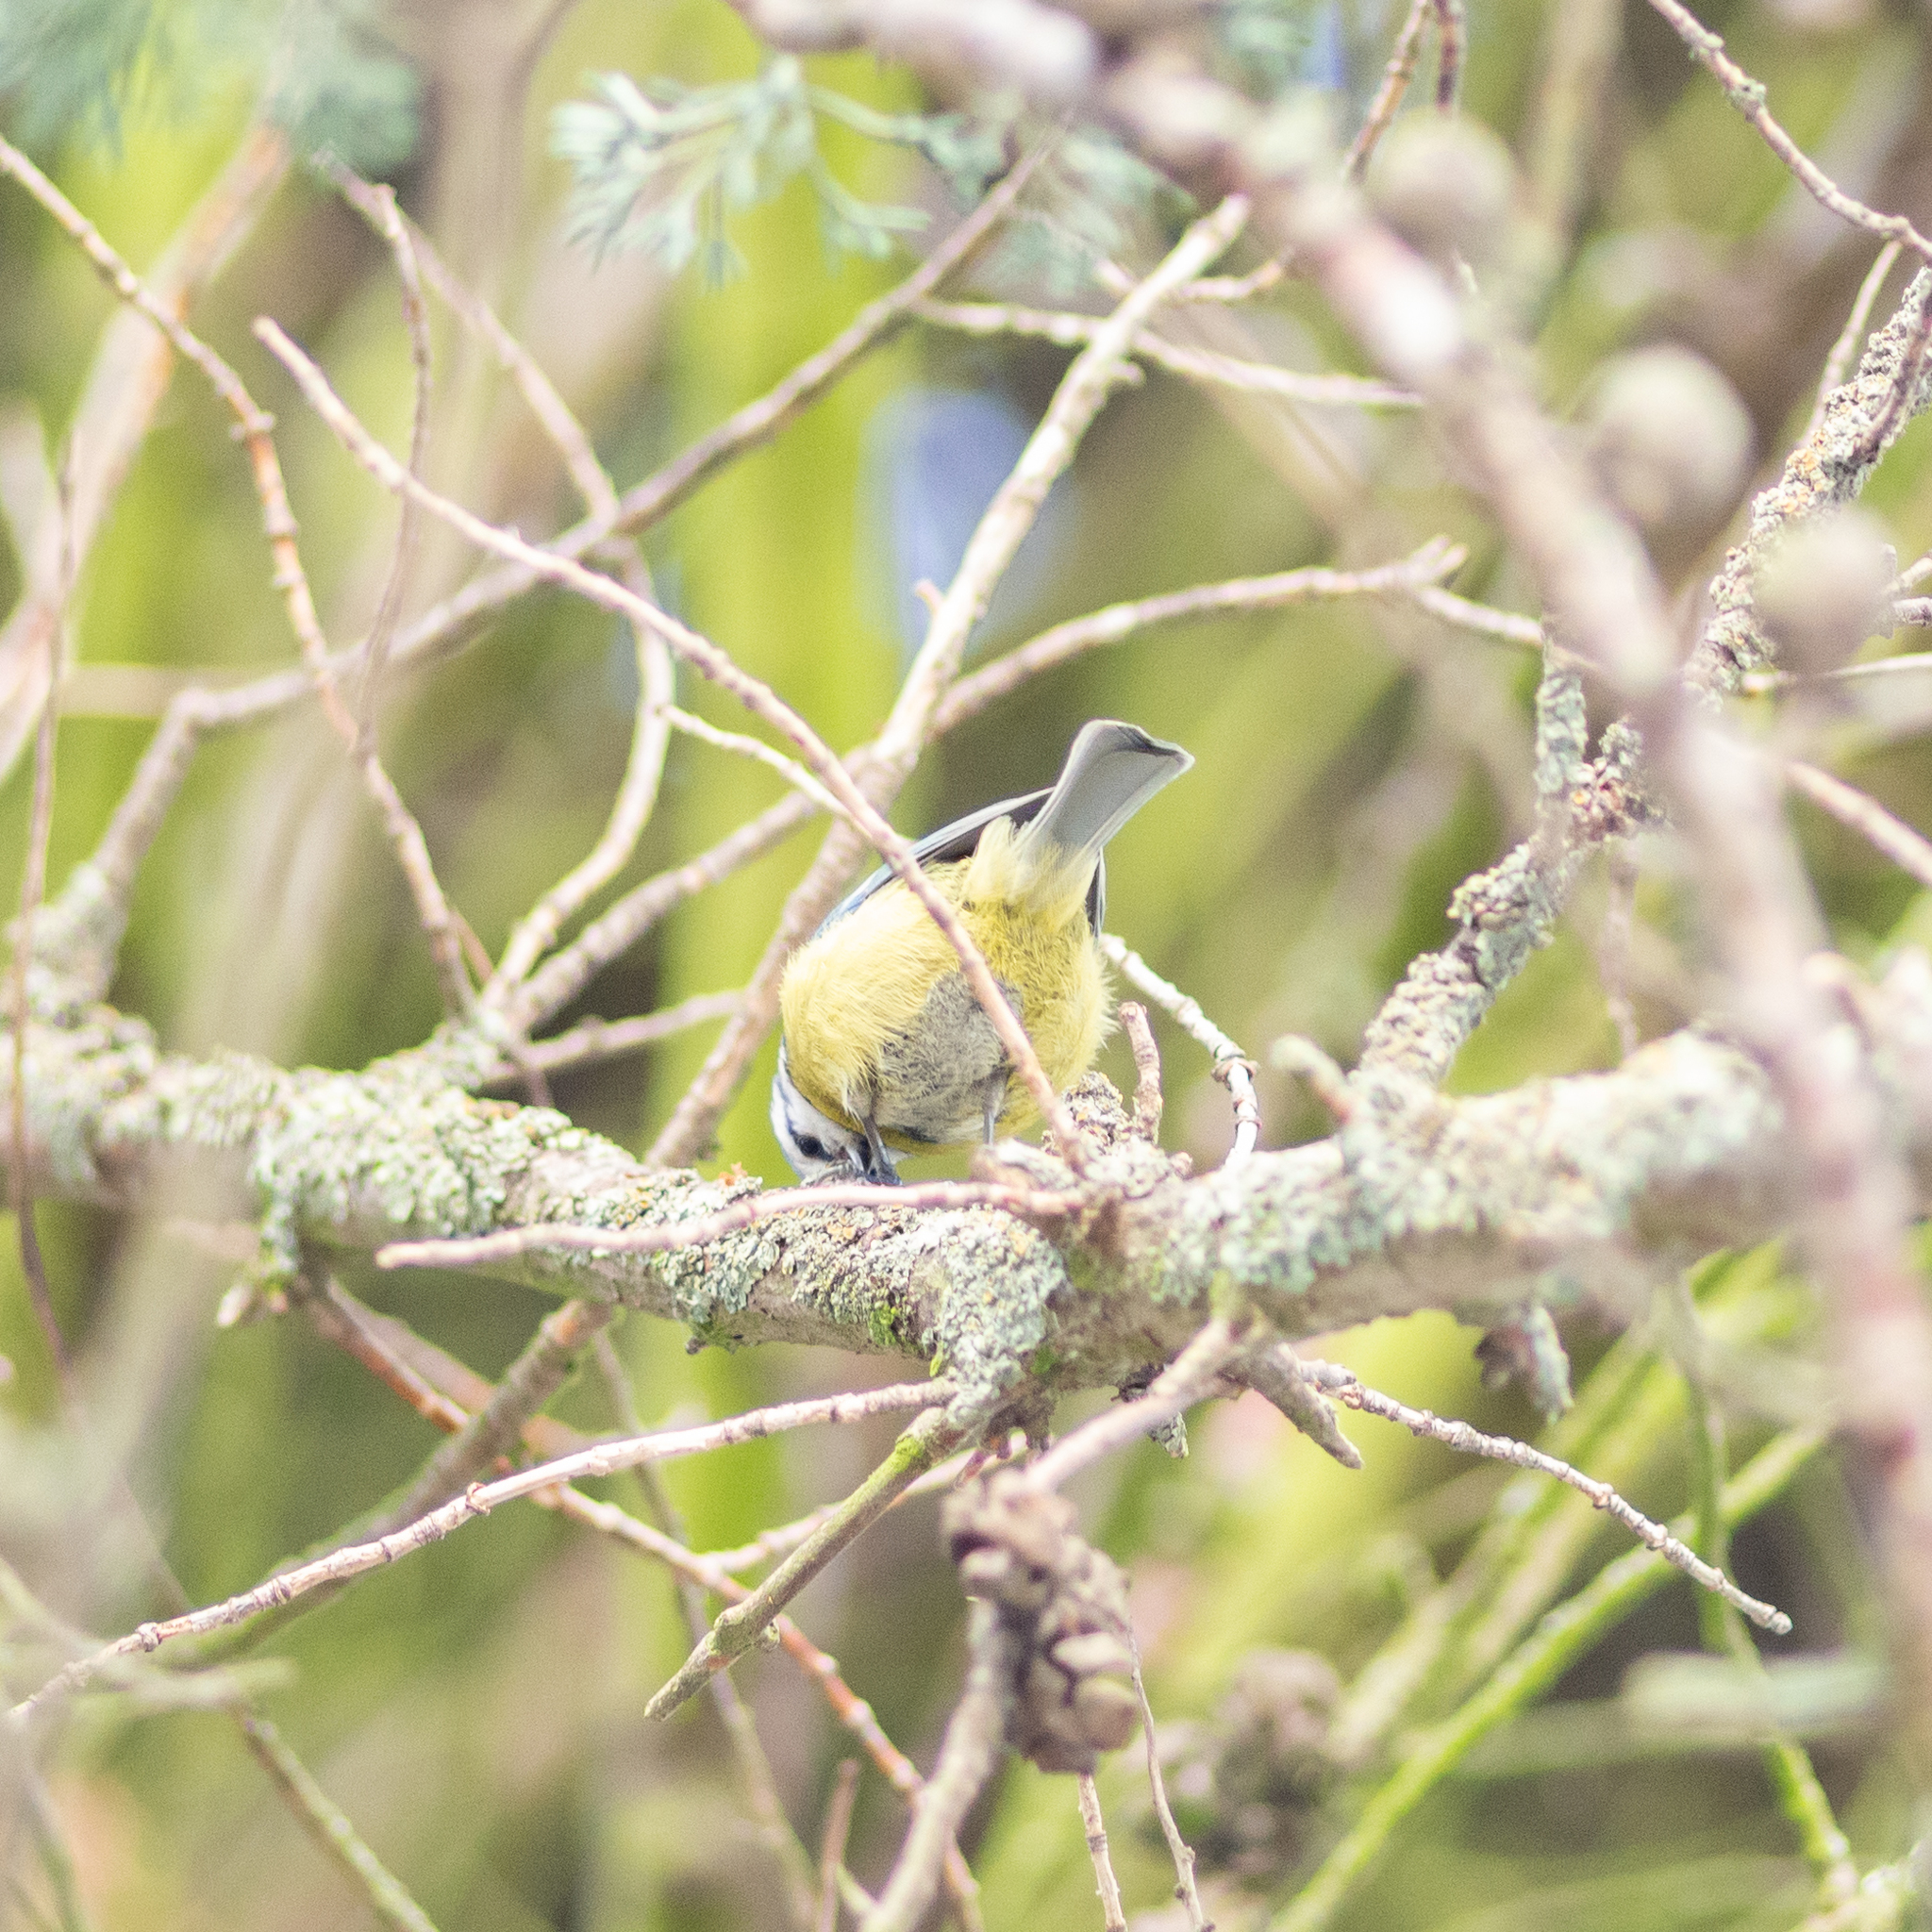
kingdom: Animalia
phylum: Chordata
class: Aves
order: Passeriformes
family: Paridae
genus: Cyanistes
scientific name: Cyanistes caeruleus
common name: Eurasian blue tit
